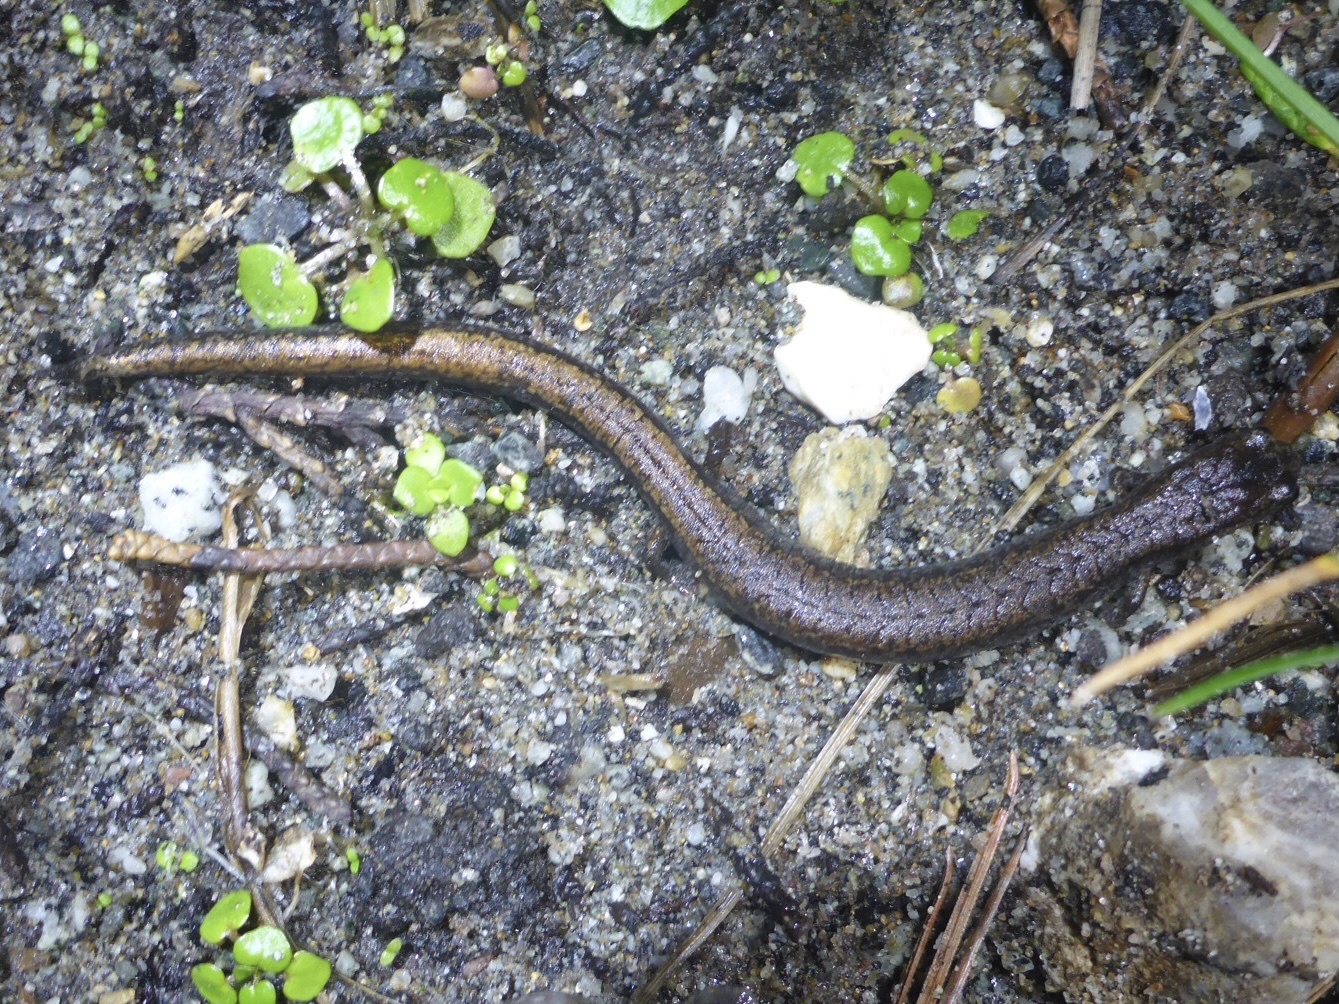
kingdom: Animalia
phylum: Chordata
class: Amphibia
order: Caudata
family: Plethodontidae
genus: Batrachoseps
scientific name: Batrachoseps attenuatus
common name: California slender salamander
